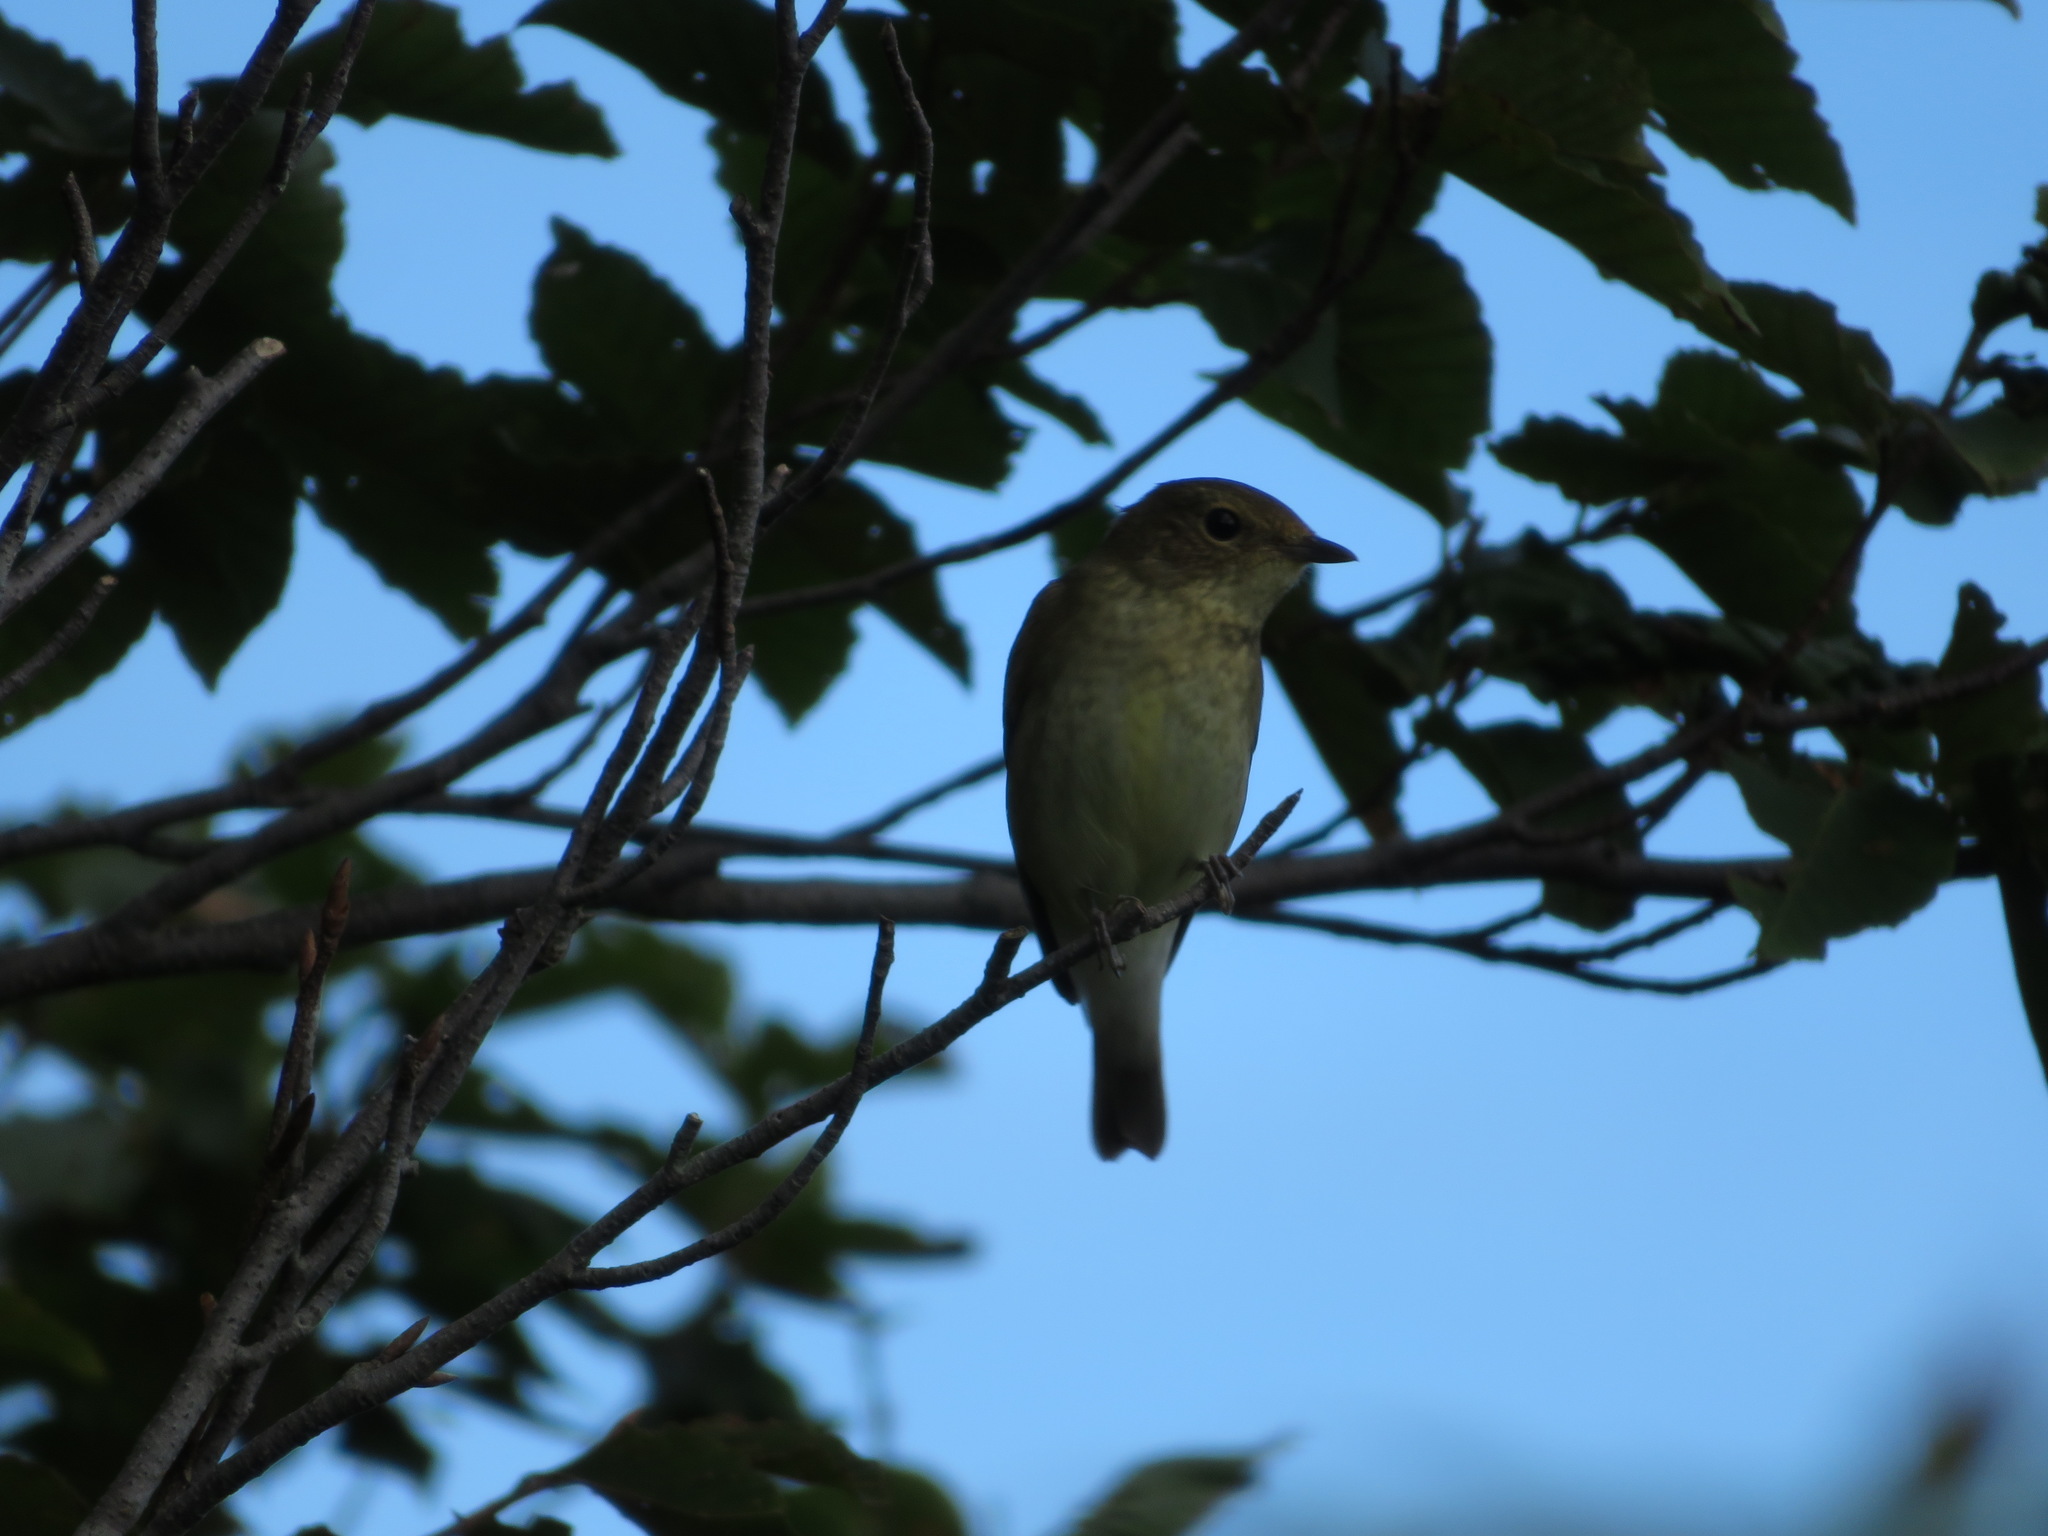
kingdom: Animalia
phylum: Chordata
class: Aves
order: Passeriformes
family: Muscicapidae
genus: Ficedula
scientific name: Ficedula narcissina
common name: Narcissus flycatcher
